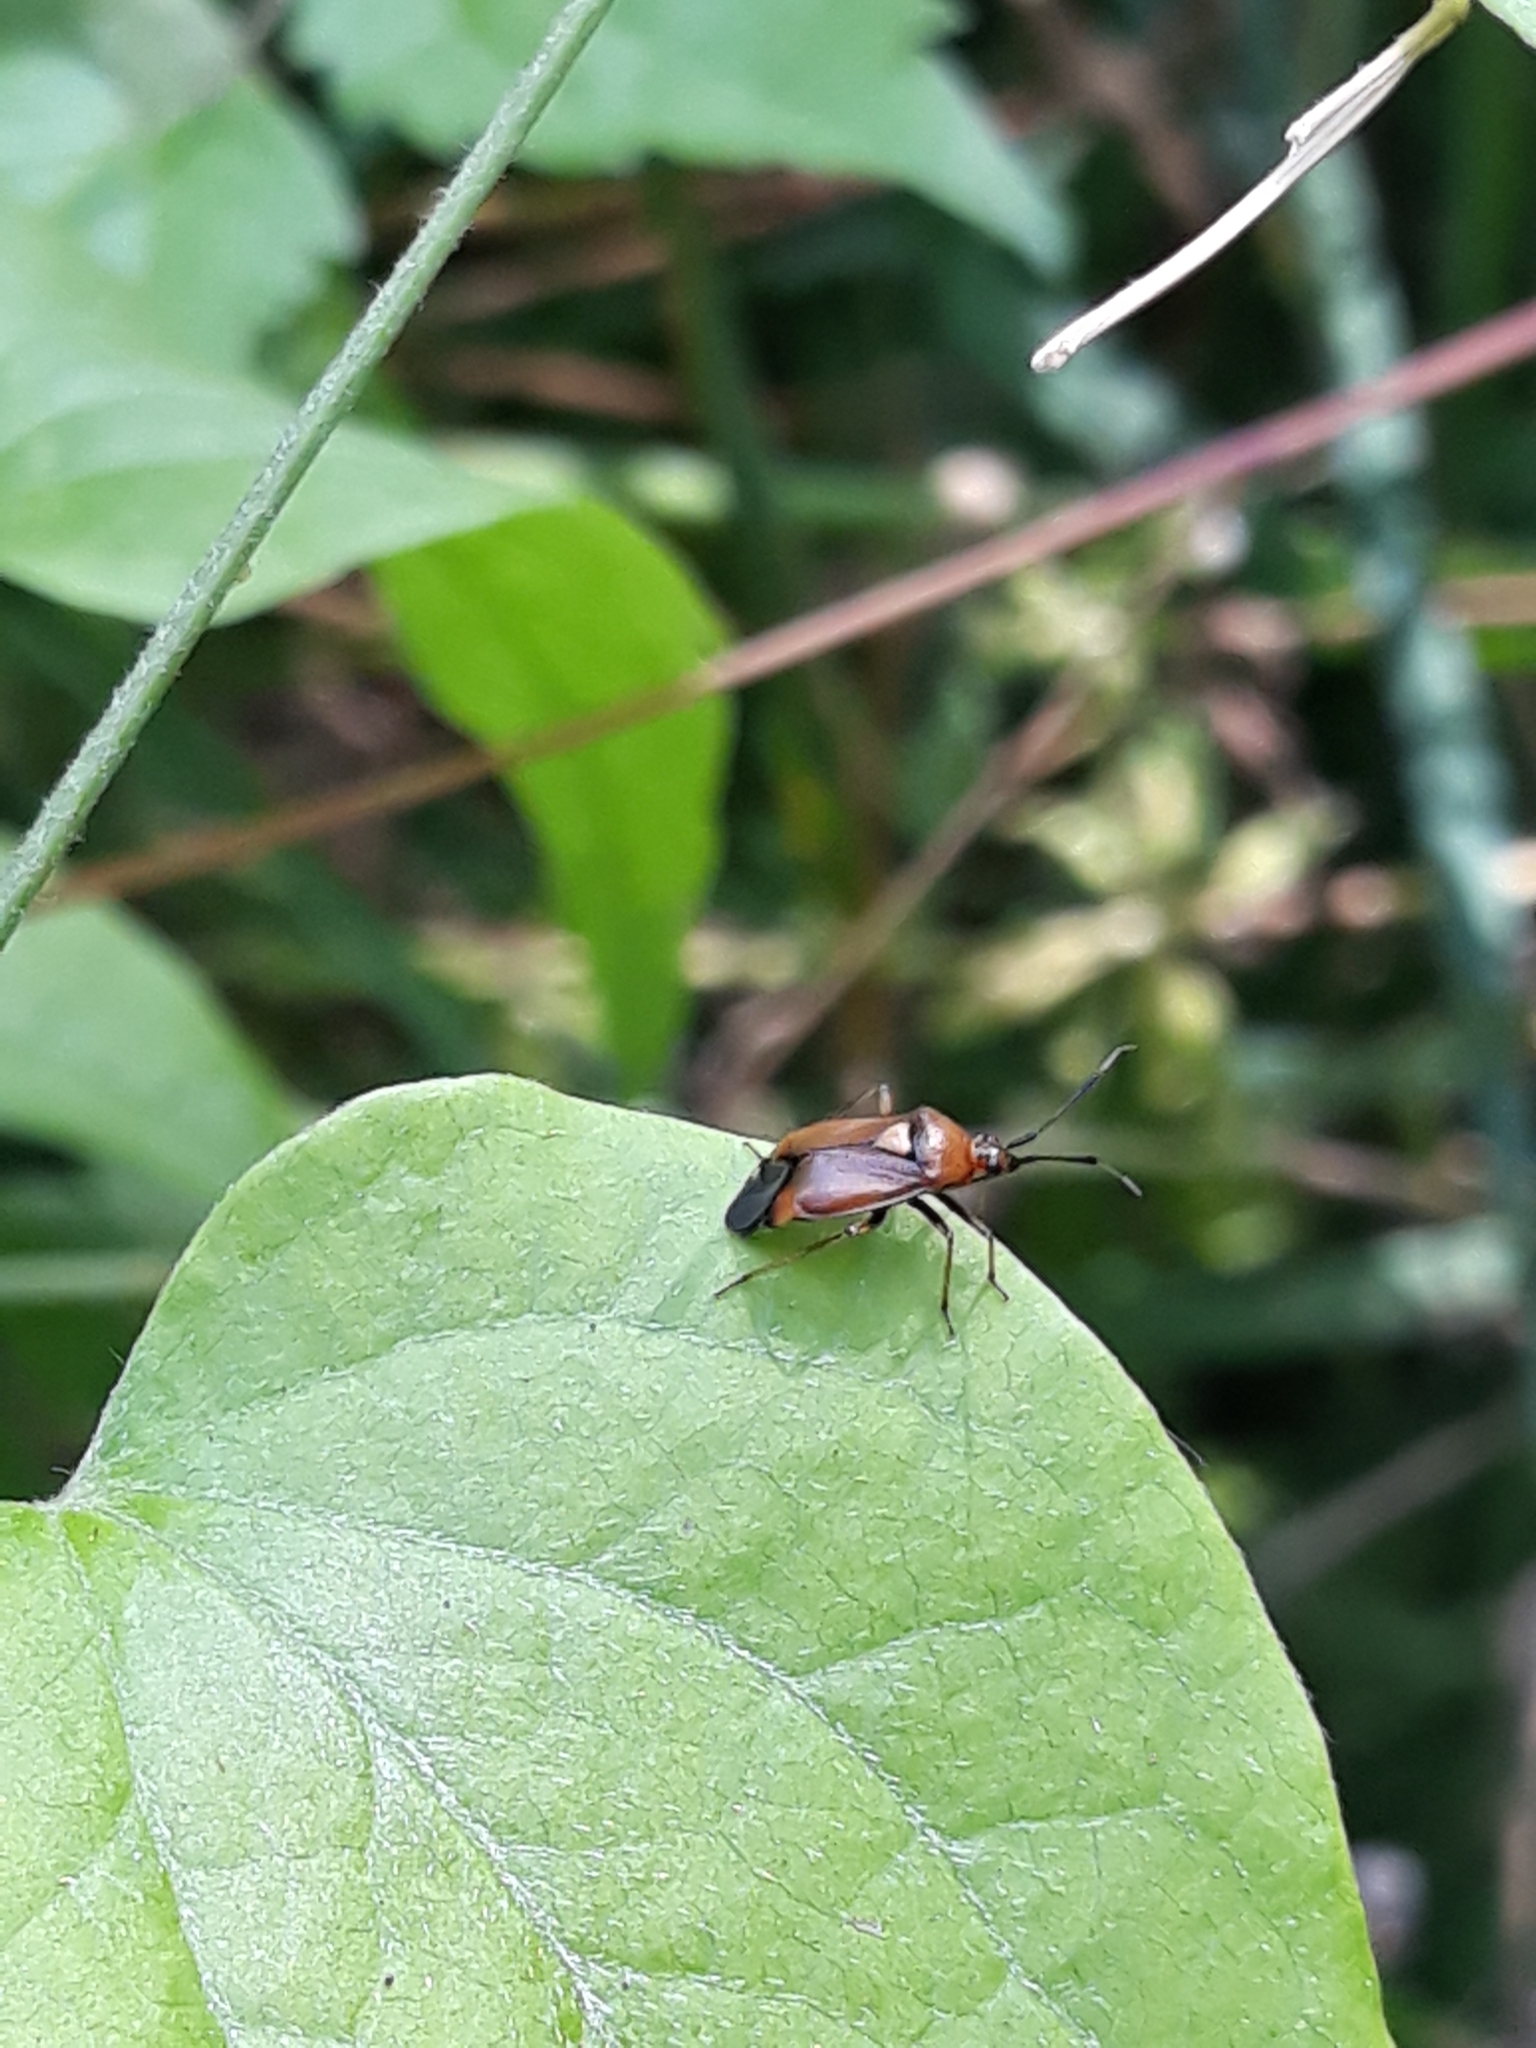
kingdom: Animalia
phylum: Arthropoda
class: Insecta
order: Hemiptera
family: Miridae
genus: Deraeocoris
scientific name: Deraeocoris ruber
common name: Plant bug
